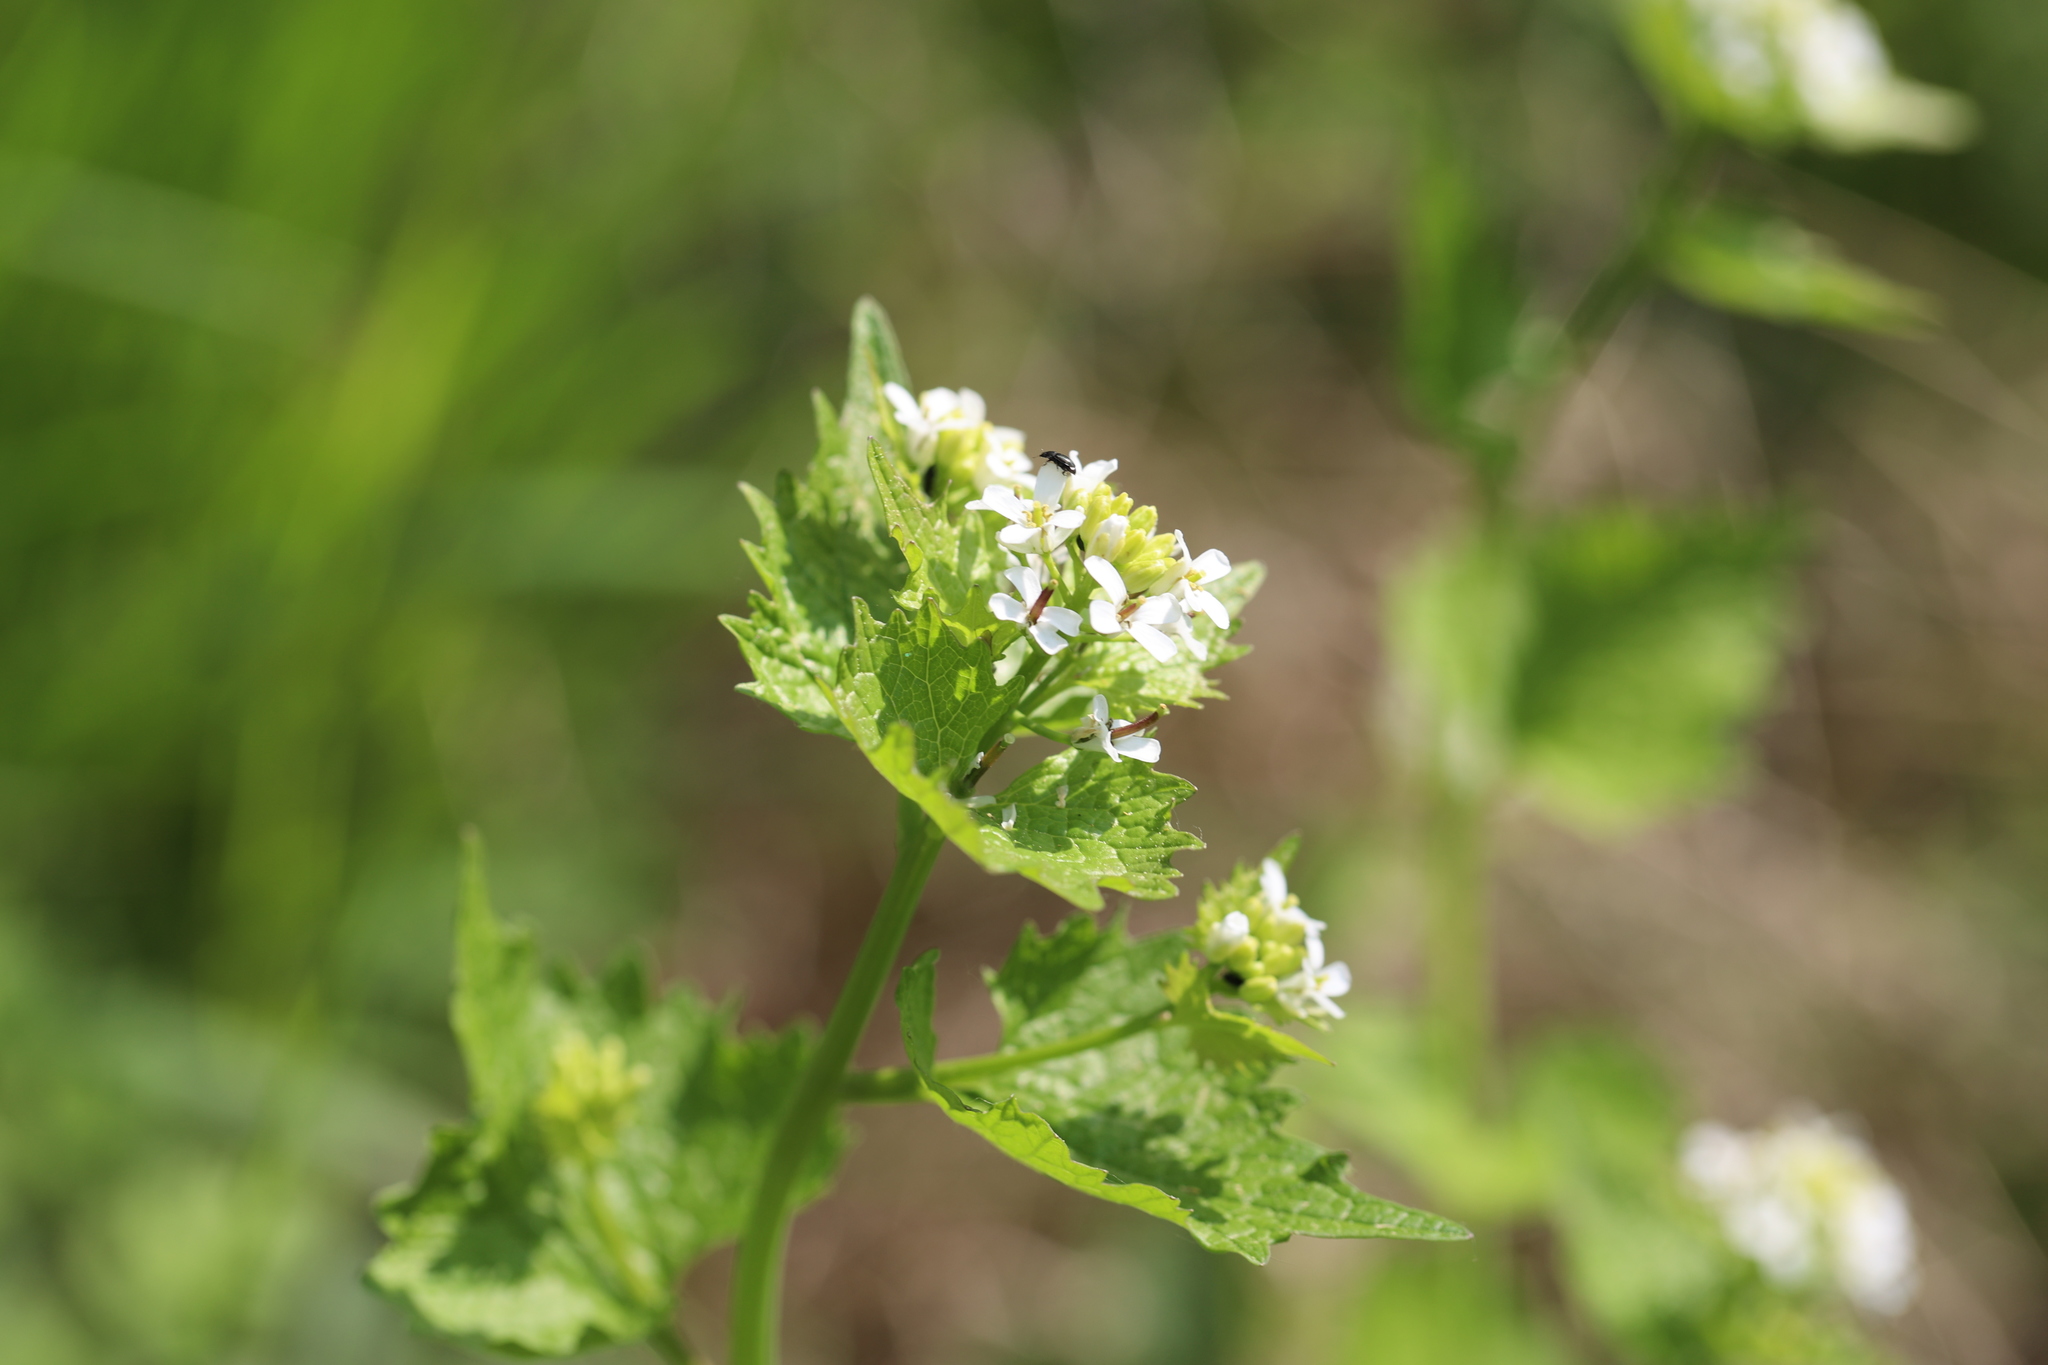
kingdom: Plantae
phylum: Tracheophyta
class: Magnoliopsida
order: Brassicales
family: Brassicaceae
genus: Alliaria
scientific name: Alliaria petiolata
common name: Garlic mustard
